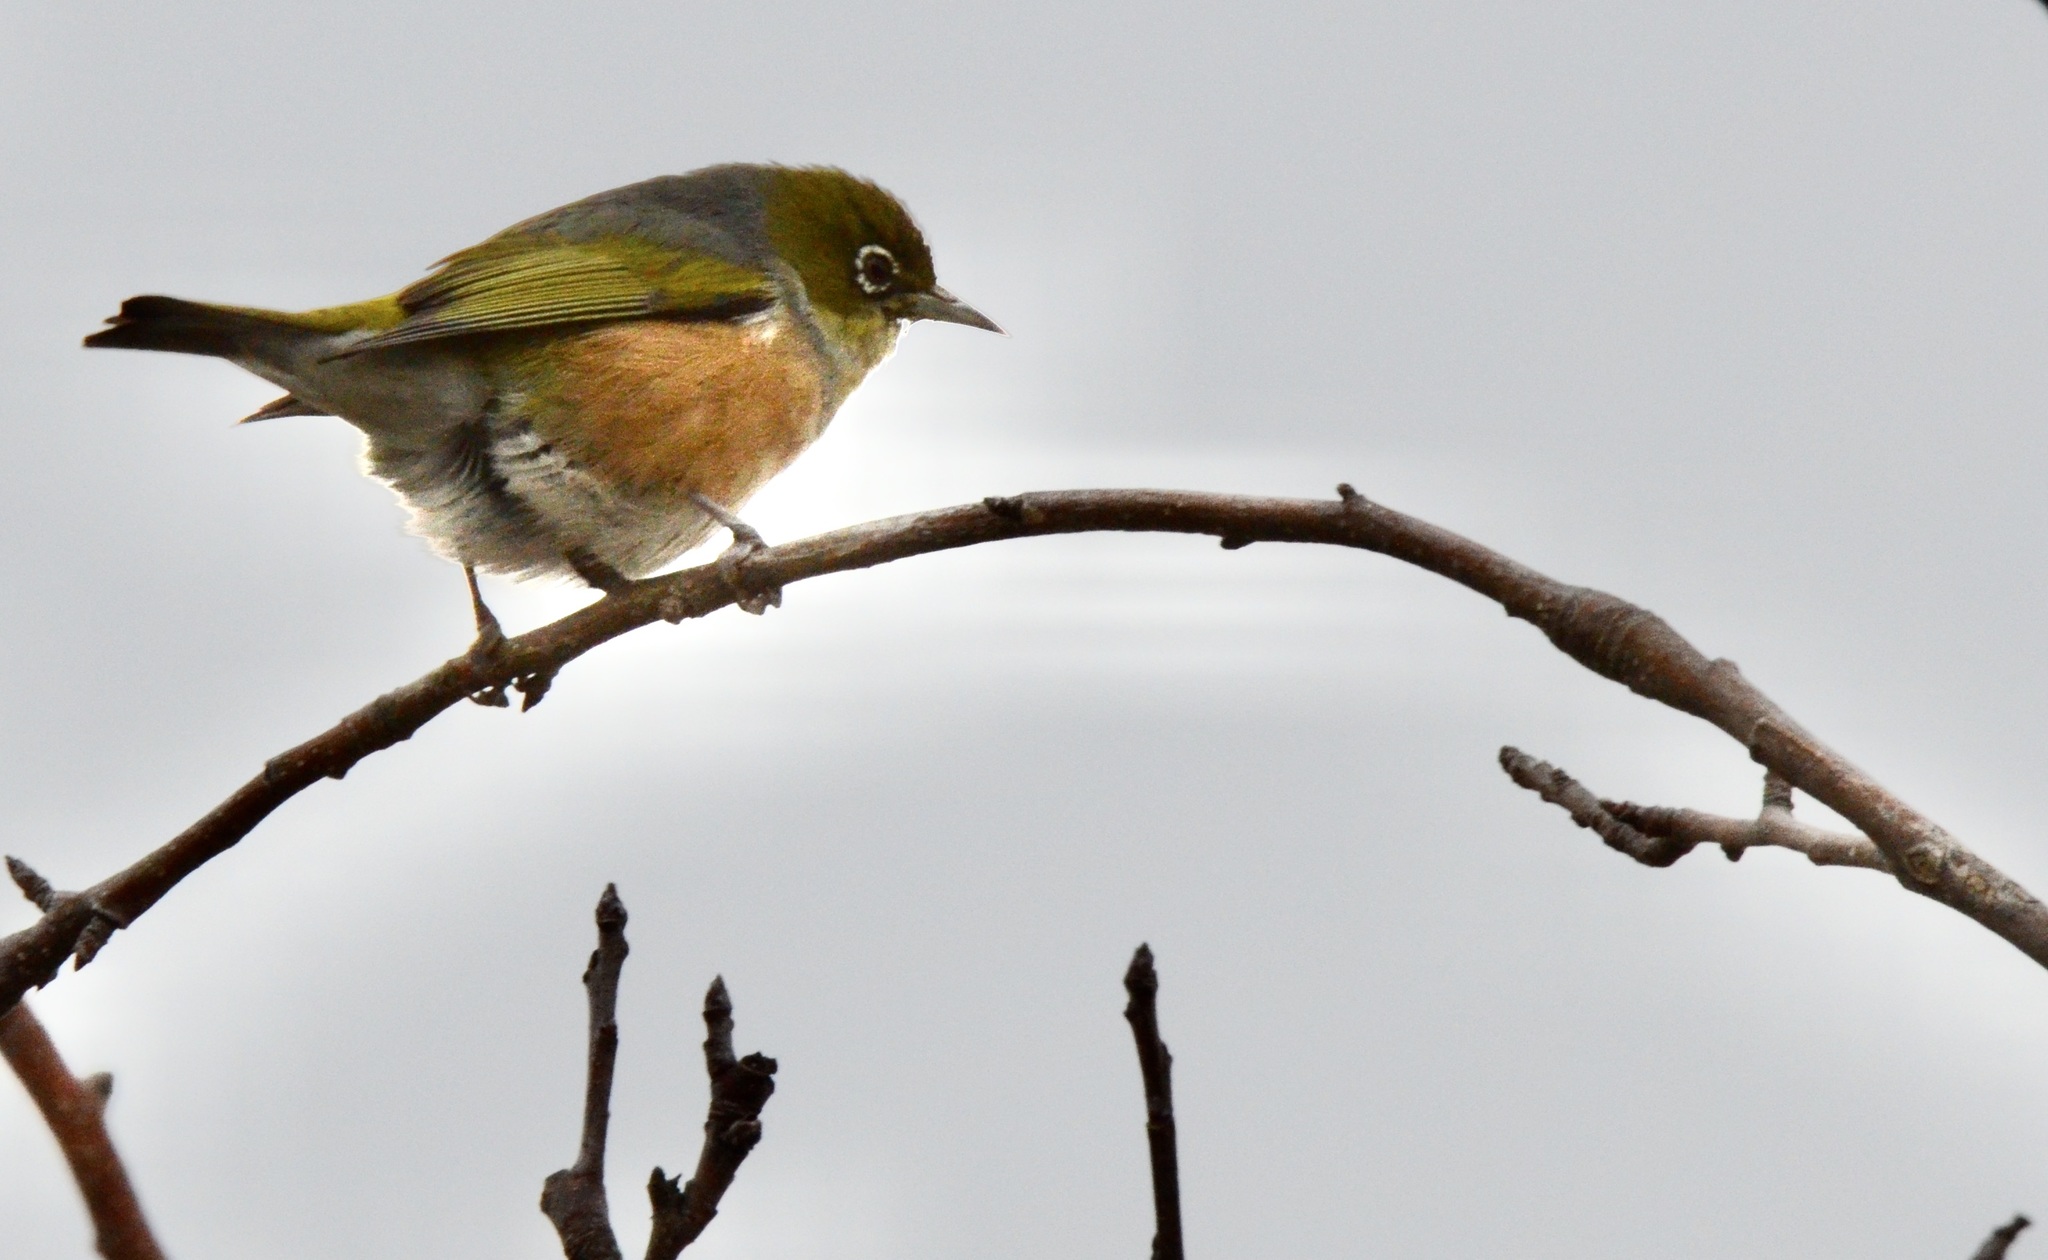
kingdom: Animalia
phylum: Chordata
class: Aves
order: Passeriformes
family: Zosteropidae
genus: Zosterops
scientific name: Zosterops lateralis
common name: Silvereye
